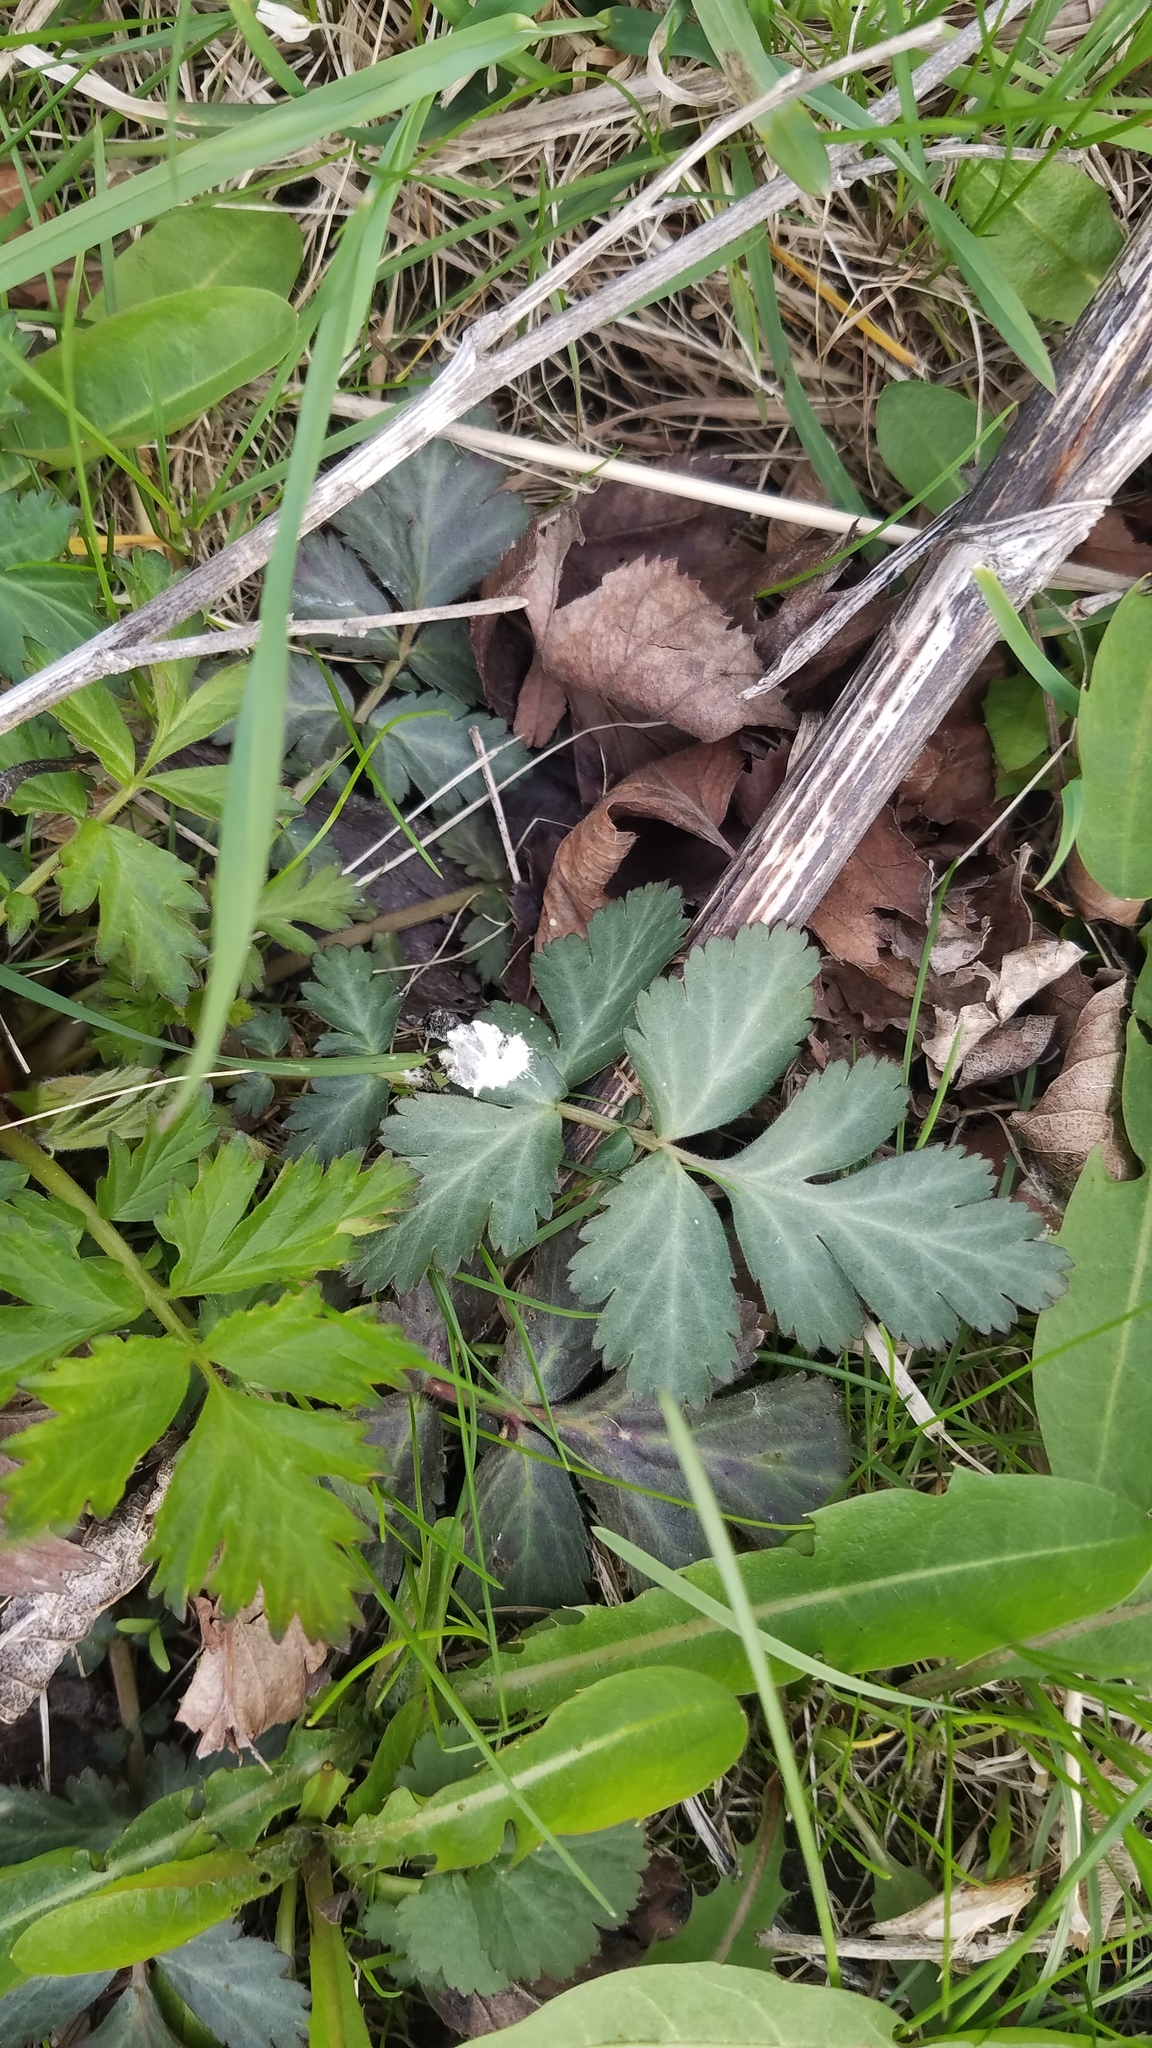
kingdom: Plantae
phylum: Tracheophyta
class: Magnoliopsida
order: Rosales
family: Rosaceae
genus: Geum
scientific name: Geum canadense
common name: White avens
